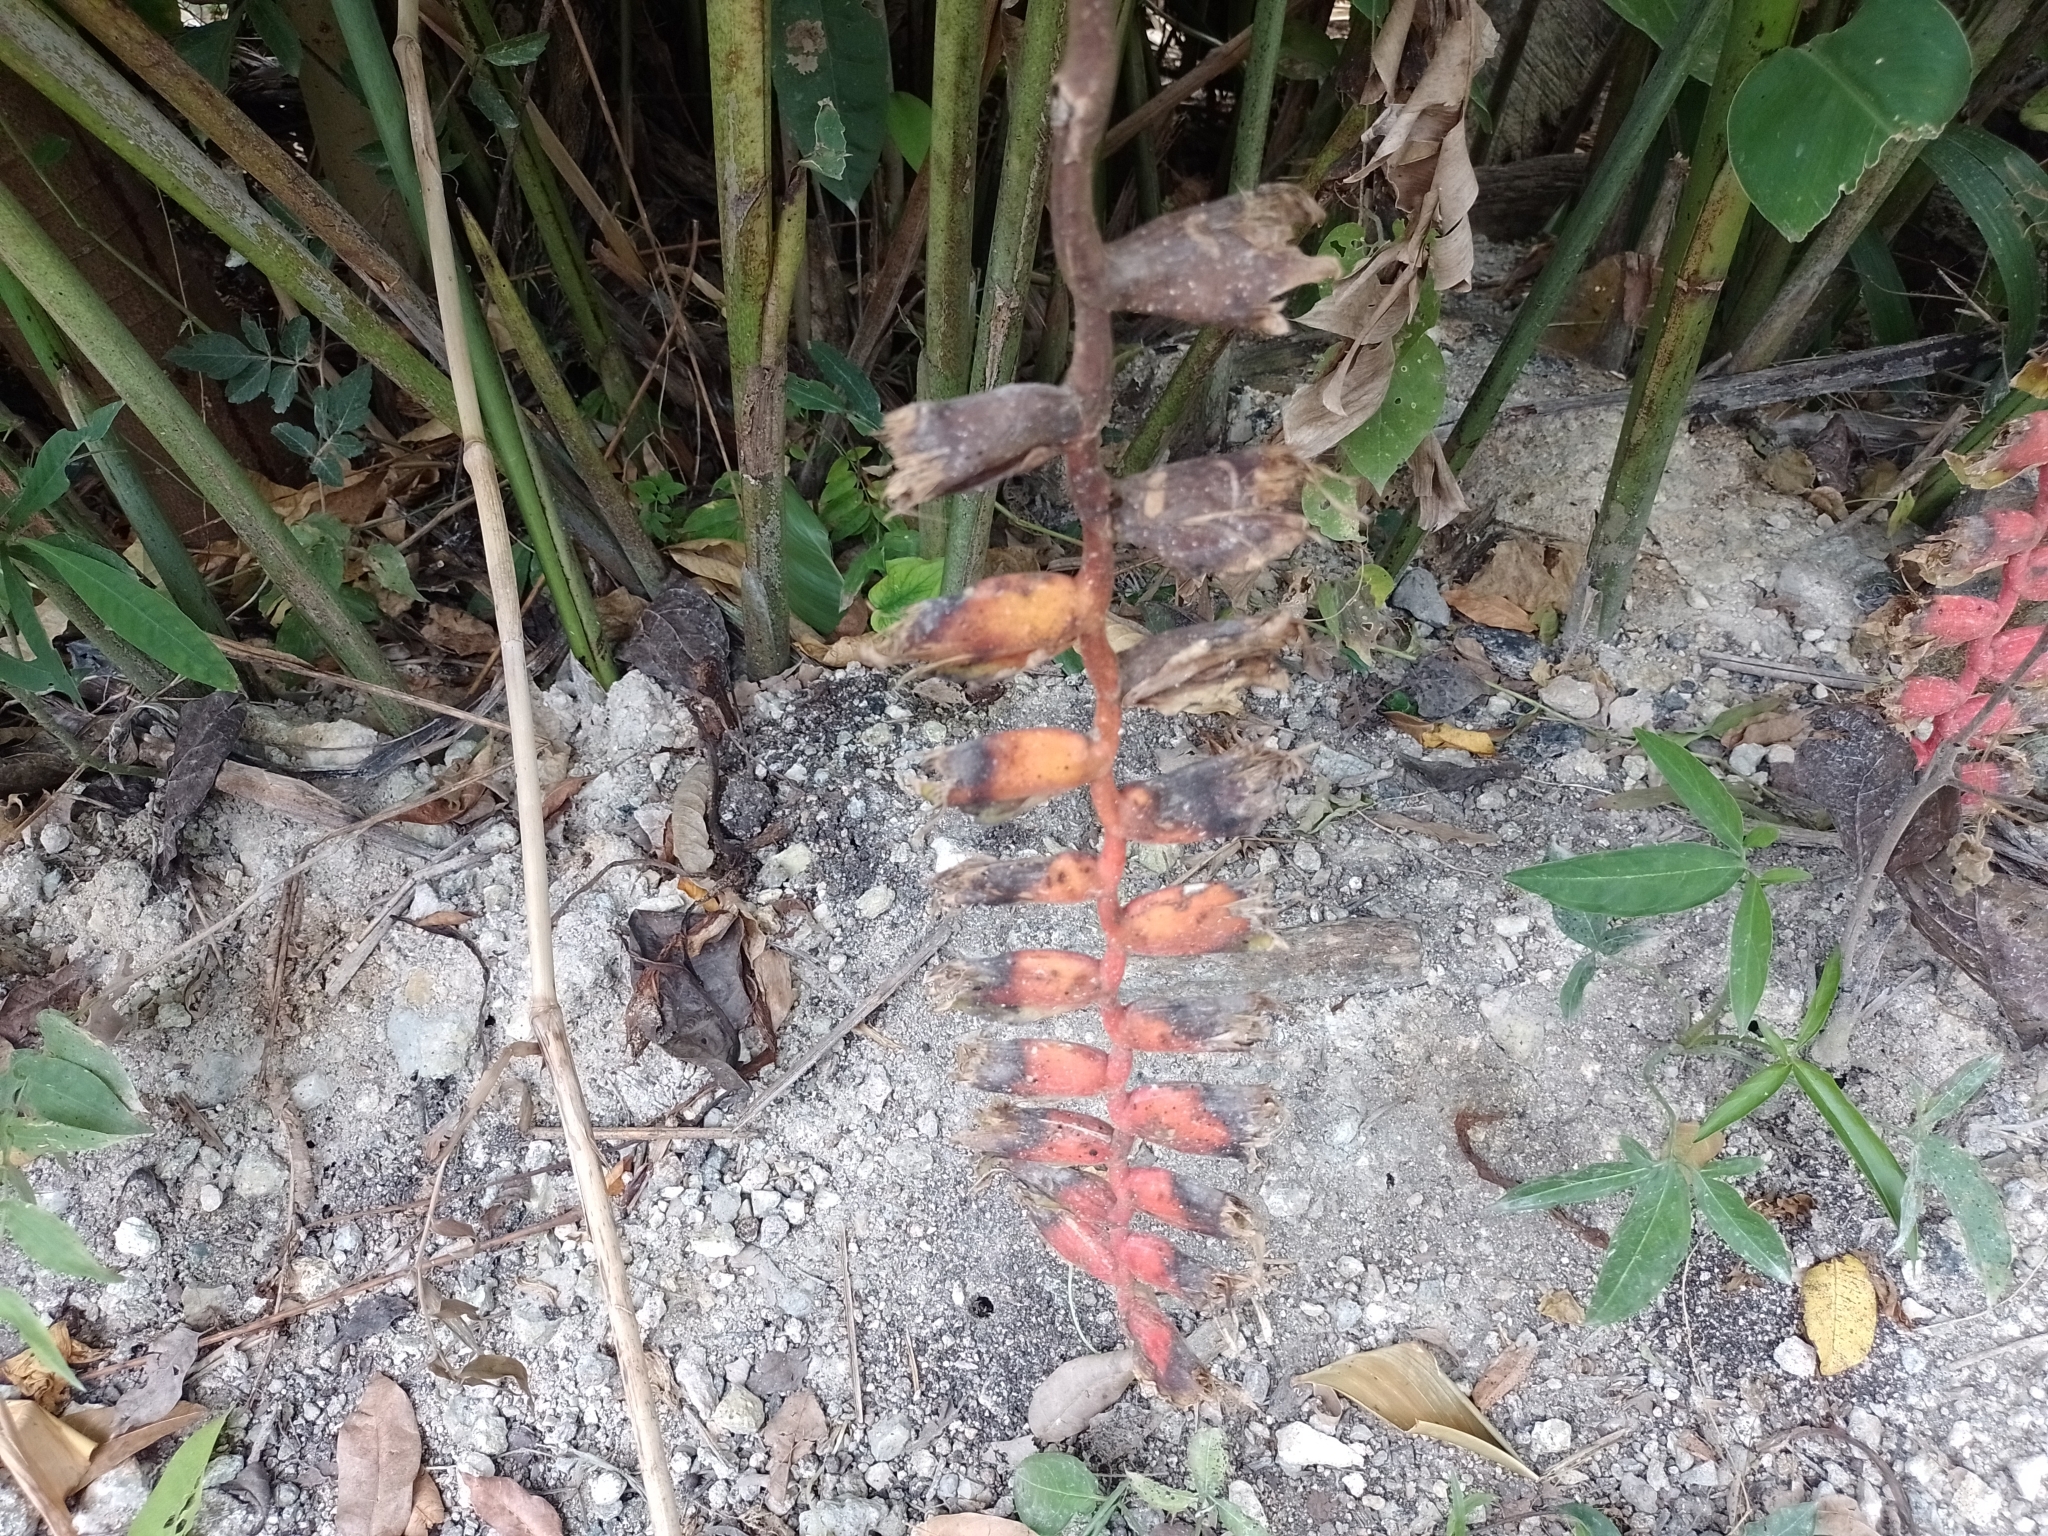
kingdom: Plantae
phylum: Tracheophyta
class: Liliopsida
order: Zingiberales
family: Heliconiaceae
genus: Heliconia
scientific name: Heliconia rostrata
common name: False bird of paradise
